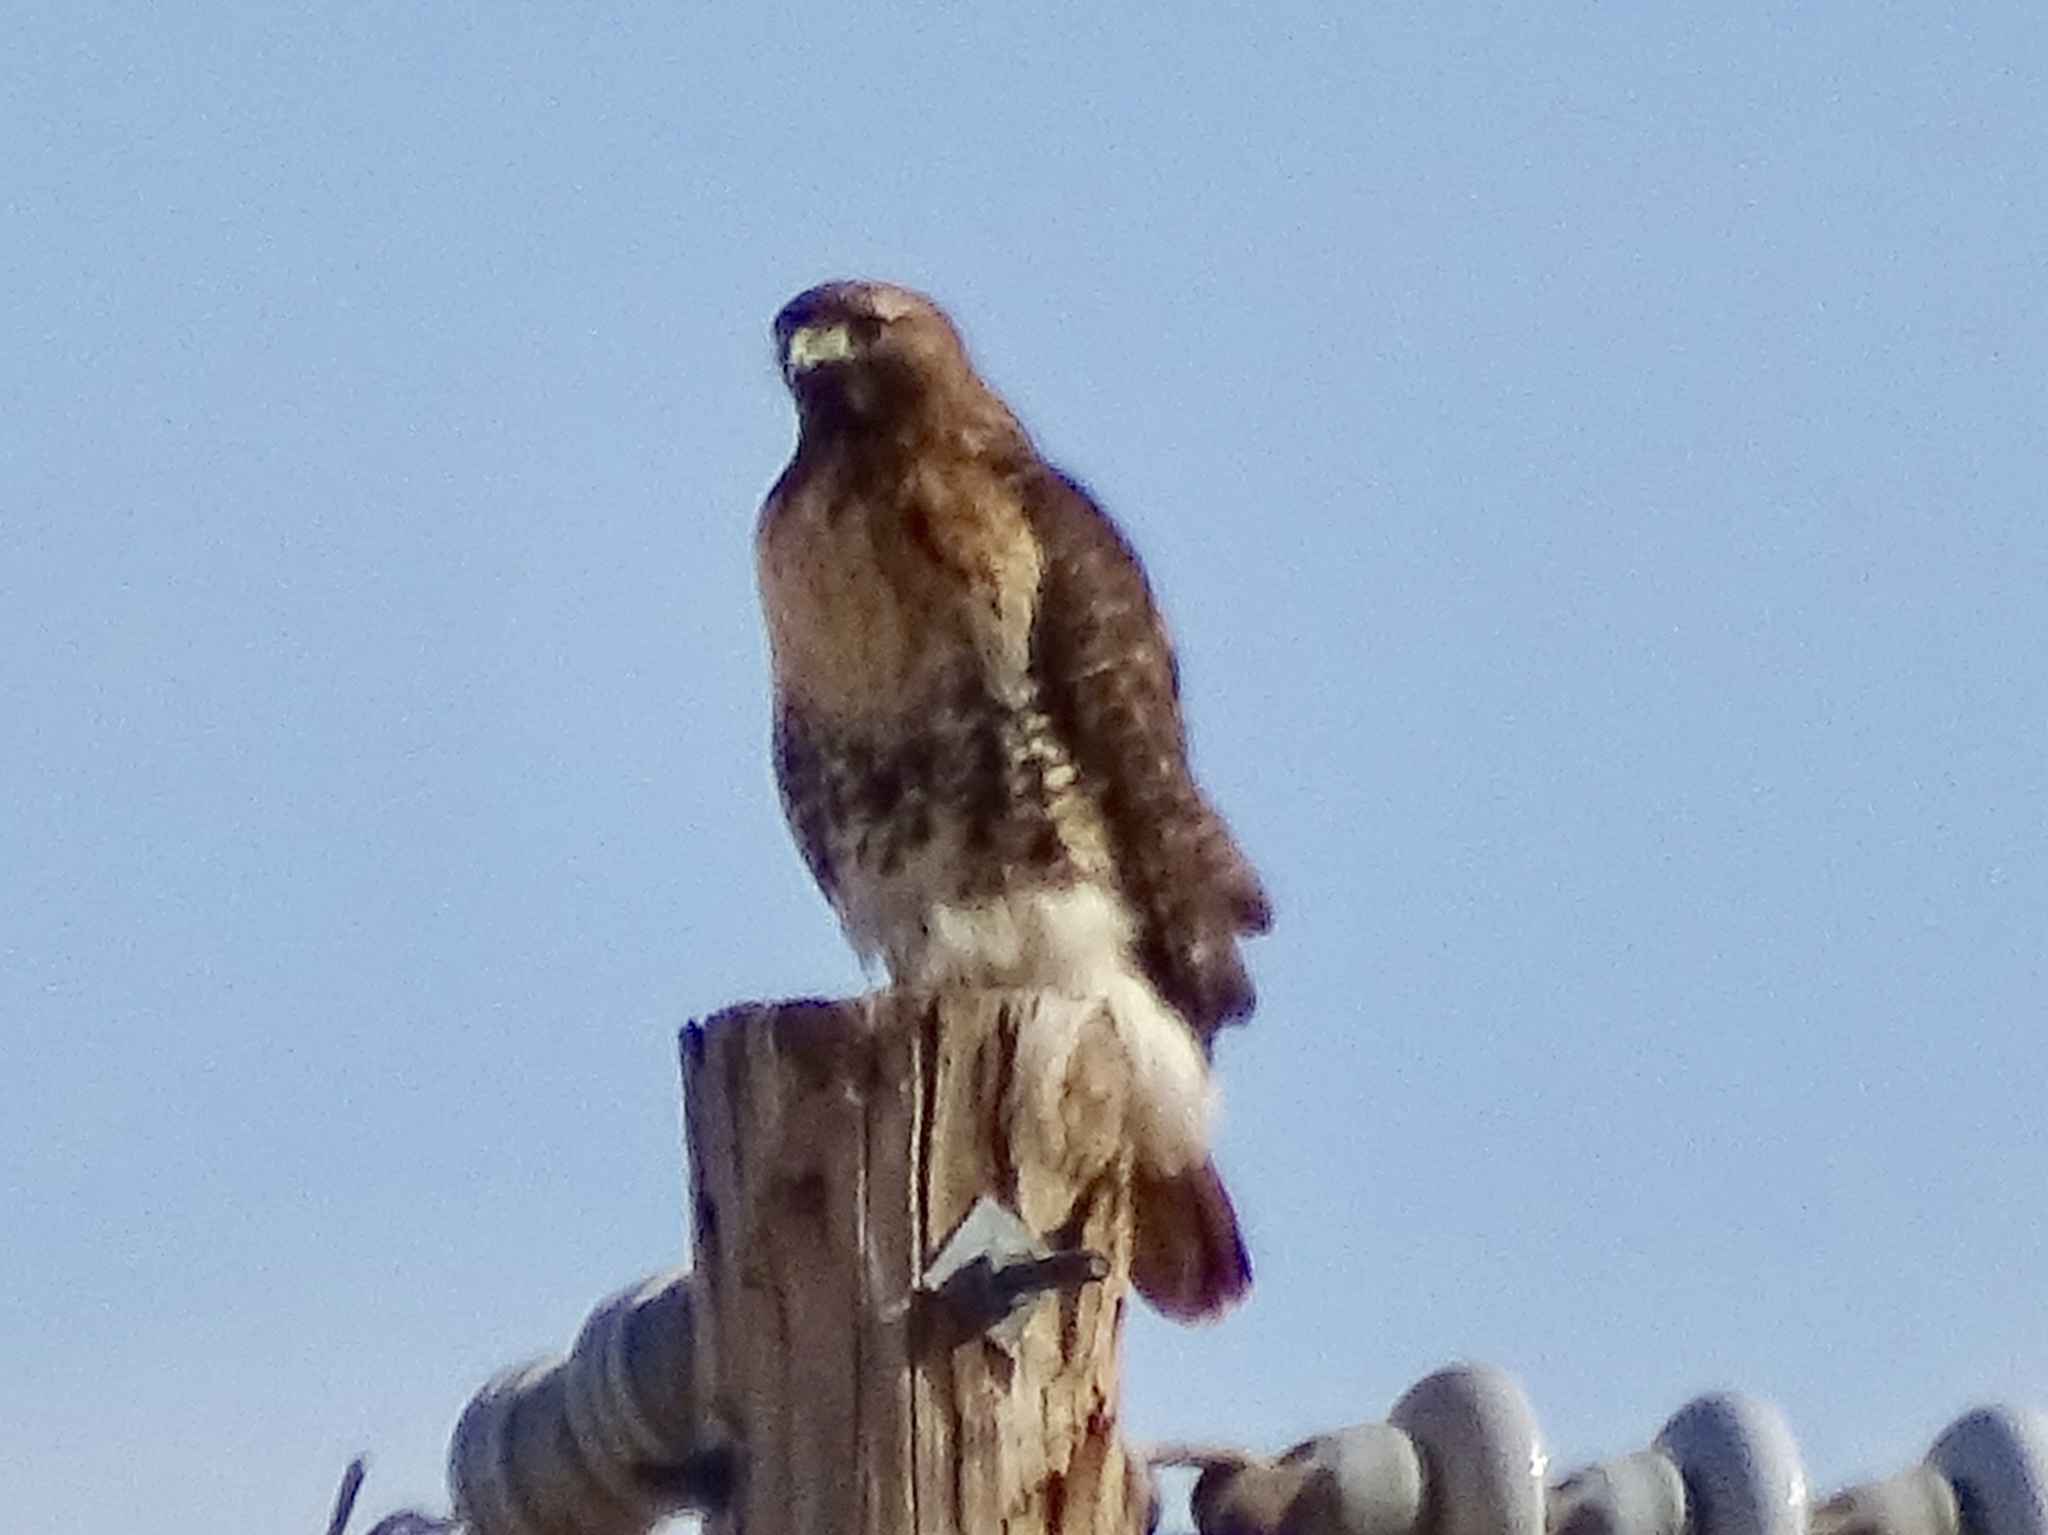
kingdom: Animalia
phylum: Chordata
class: Aves
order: Accipitriformes
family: Accipitridae
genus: Buteo
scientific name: Buteo jamaicensis
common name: Red-tailed hawk
